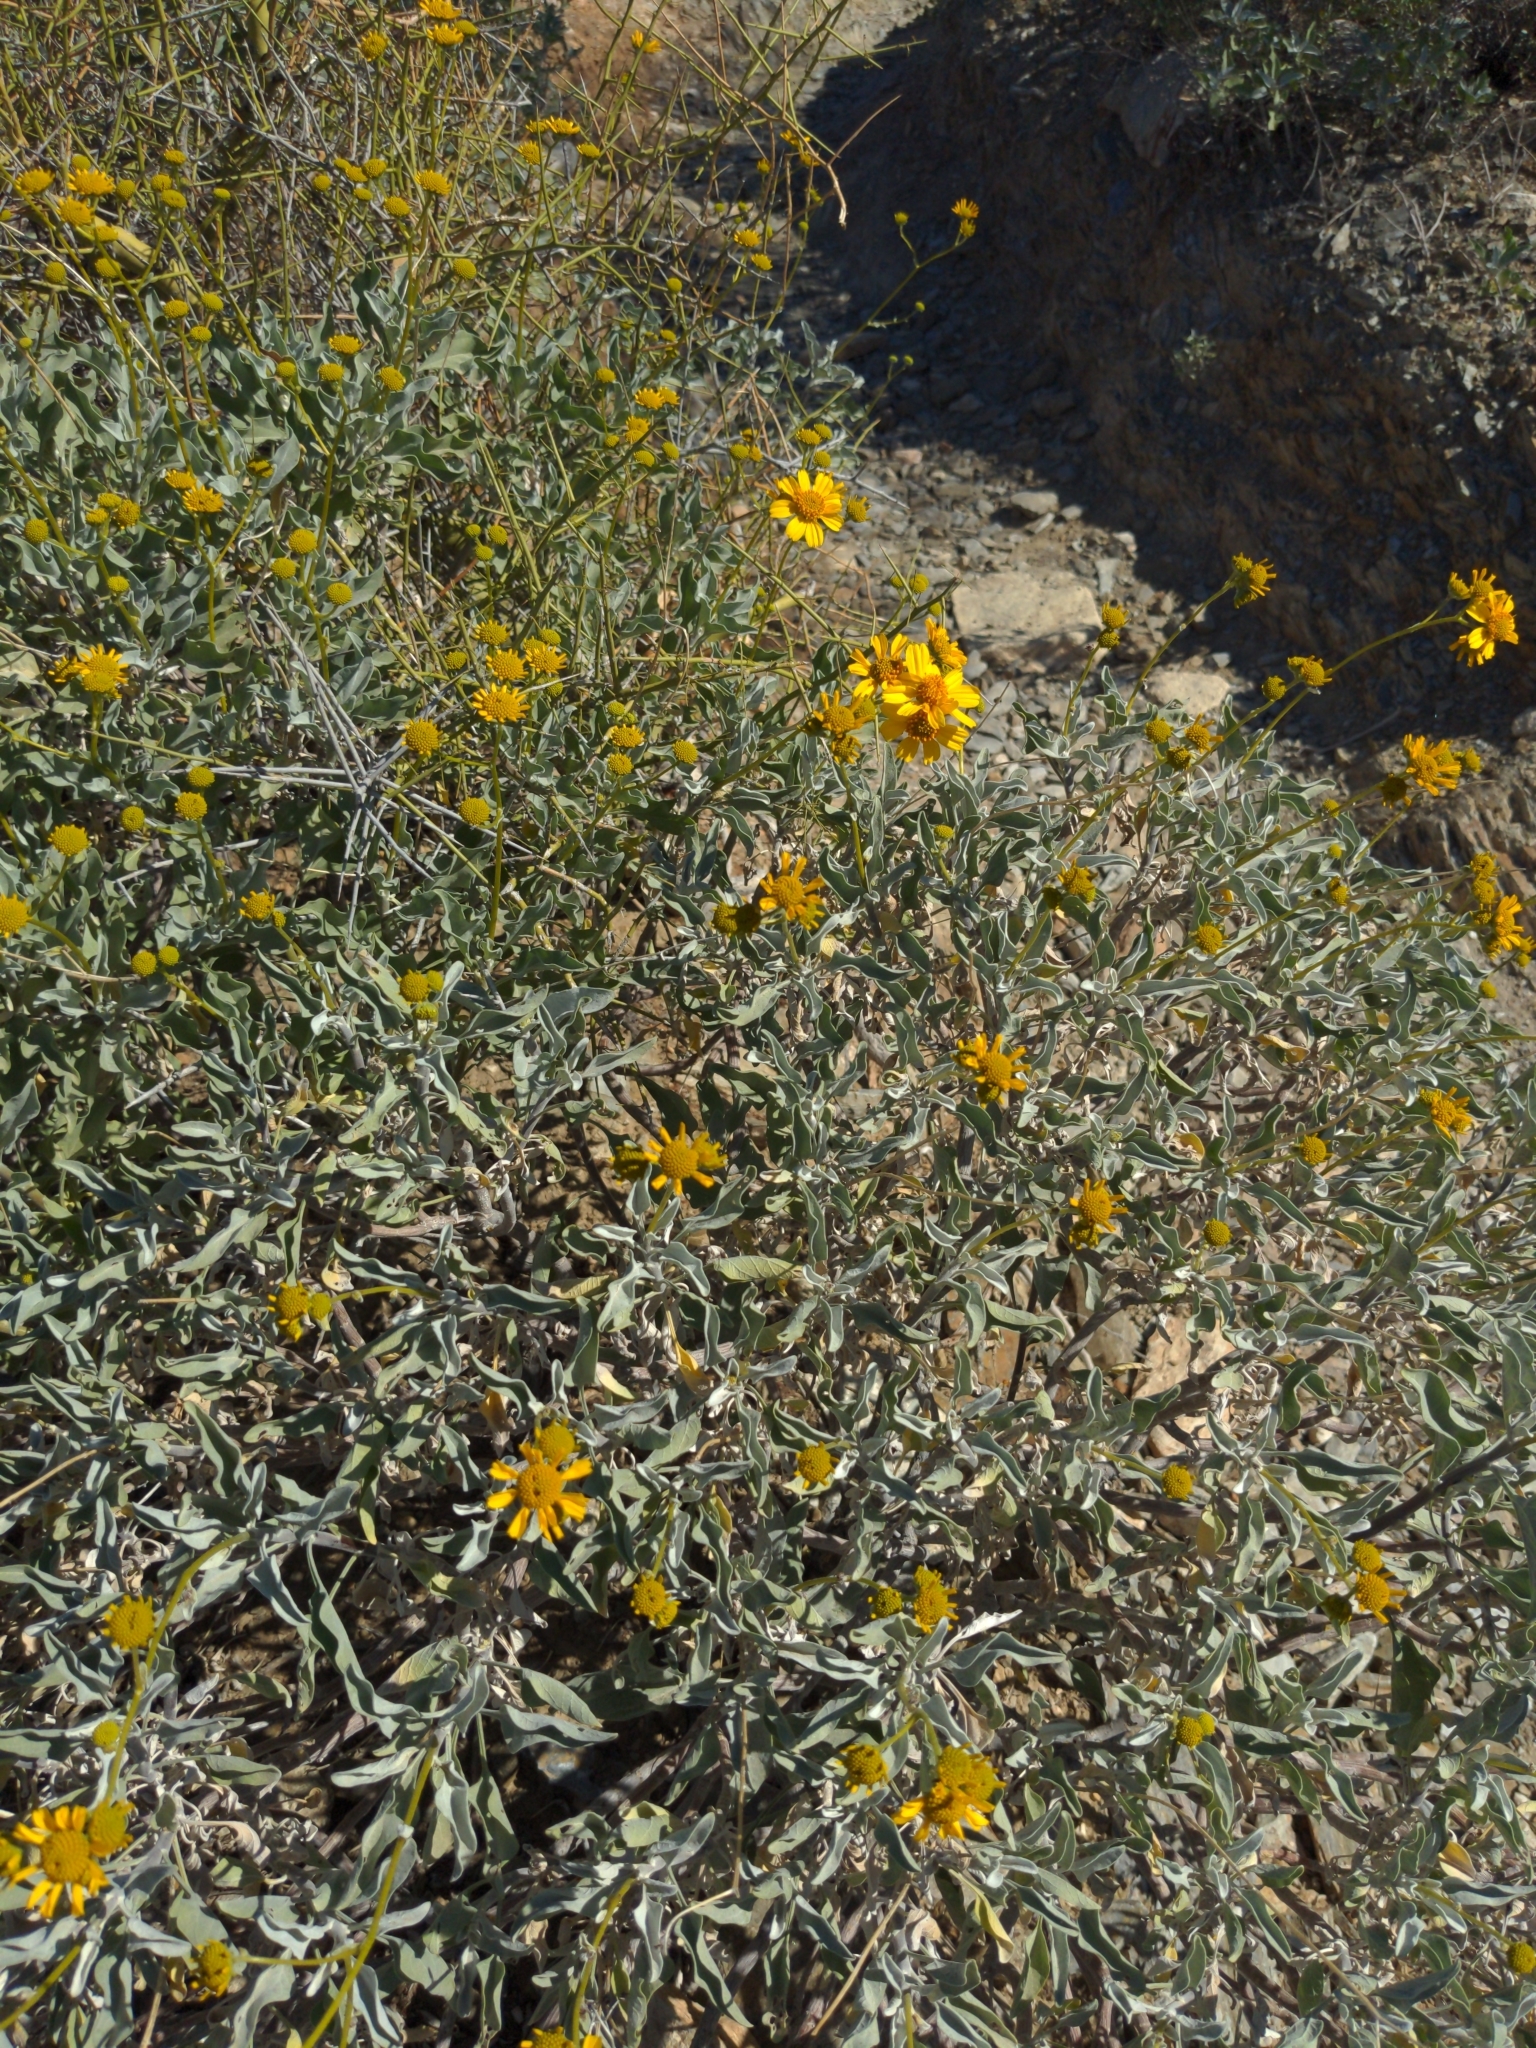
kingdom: Plantae
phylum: Tracheophyta
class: Magnoliopsida
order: Asterales
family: Asteraceae
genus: Encelia
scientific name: Encelia farinosa
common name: Brittlebush
